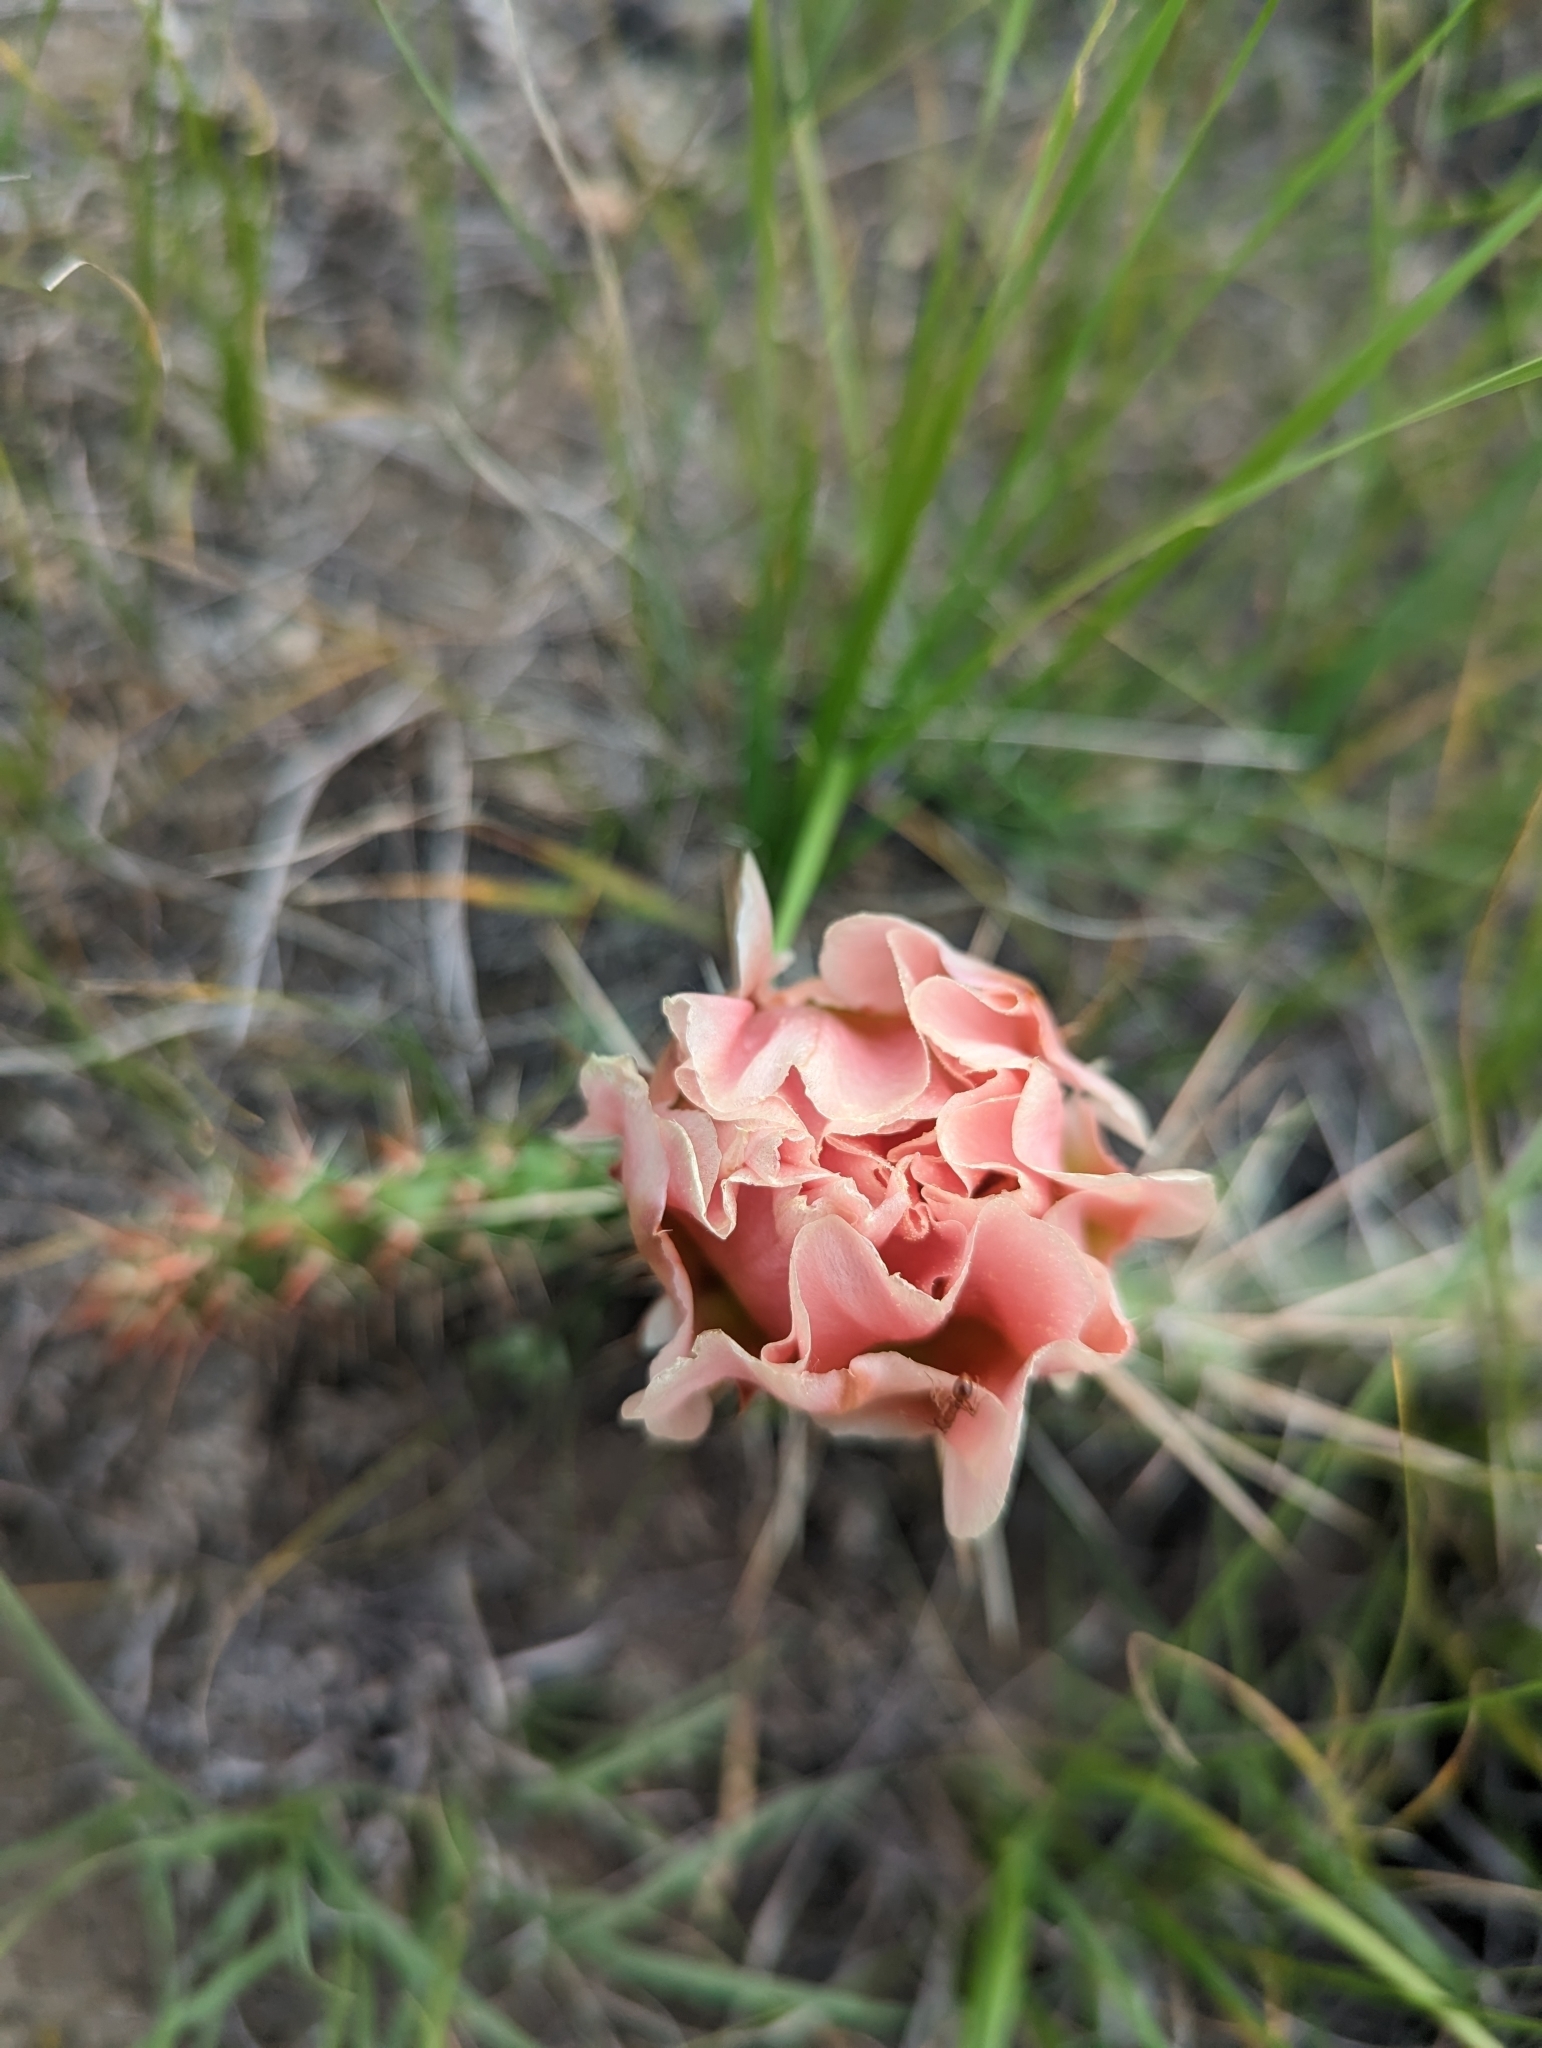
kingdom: Plantae
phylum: Tracheophyta
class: Magnoliopsida
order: Caryophyllales
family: Cactaceae
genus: Opuntia
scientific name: Opuntia polyacantha
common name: Plains prickly-pear
